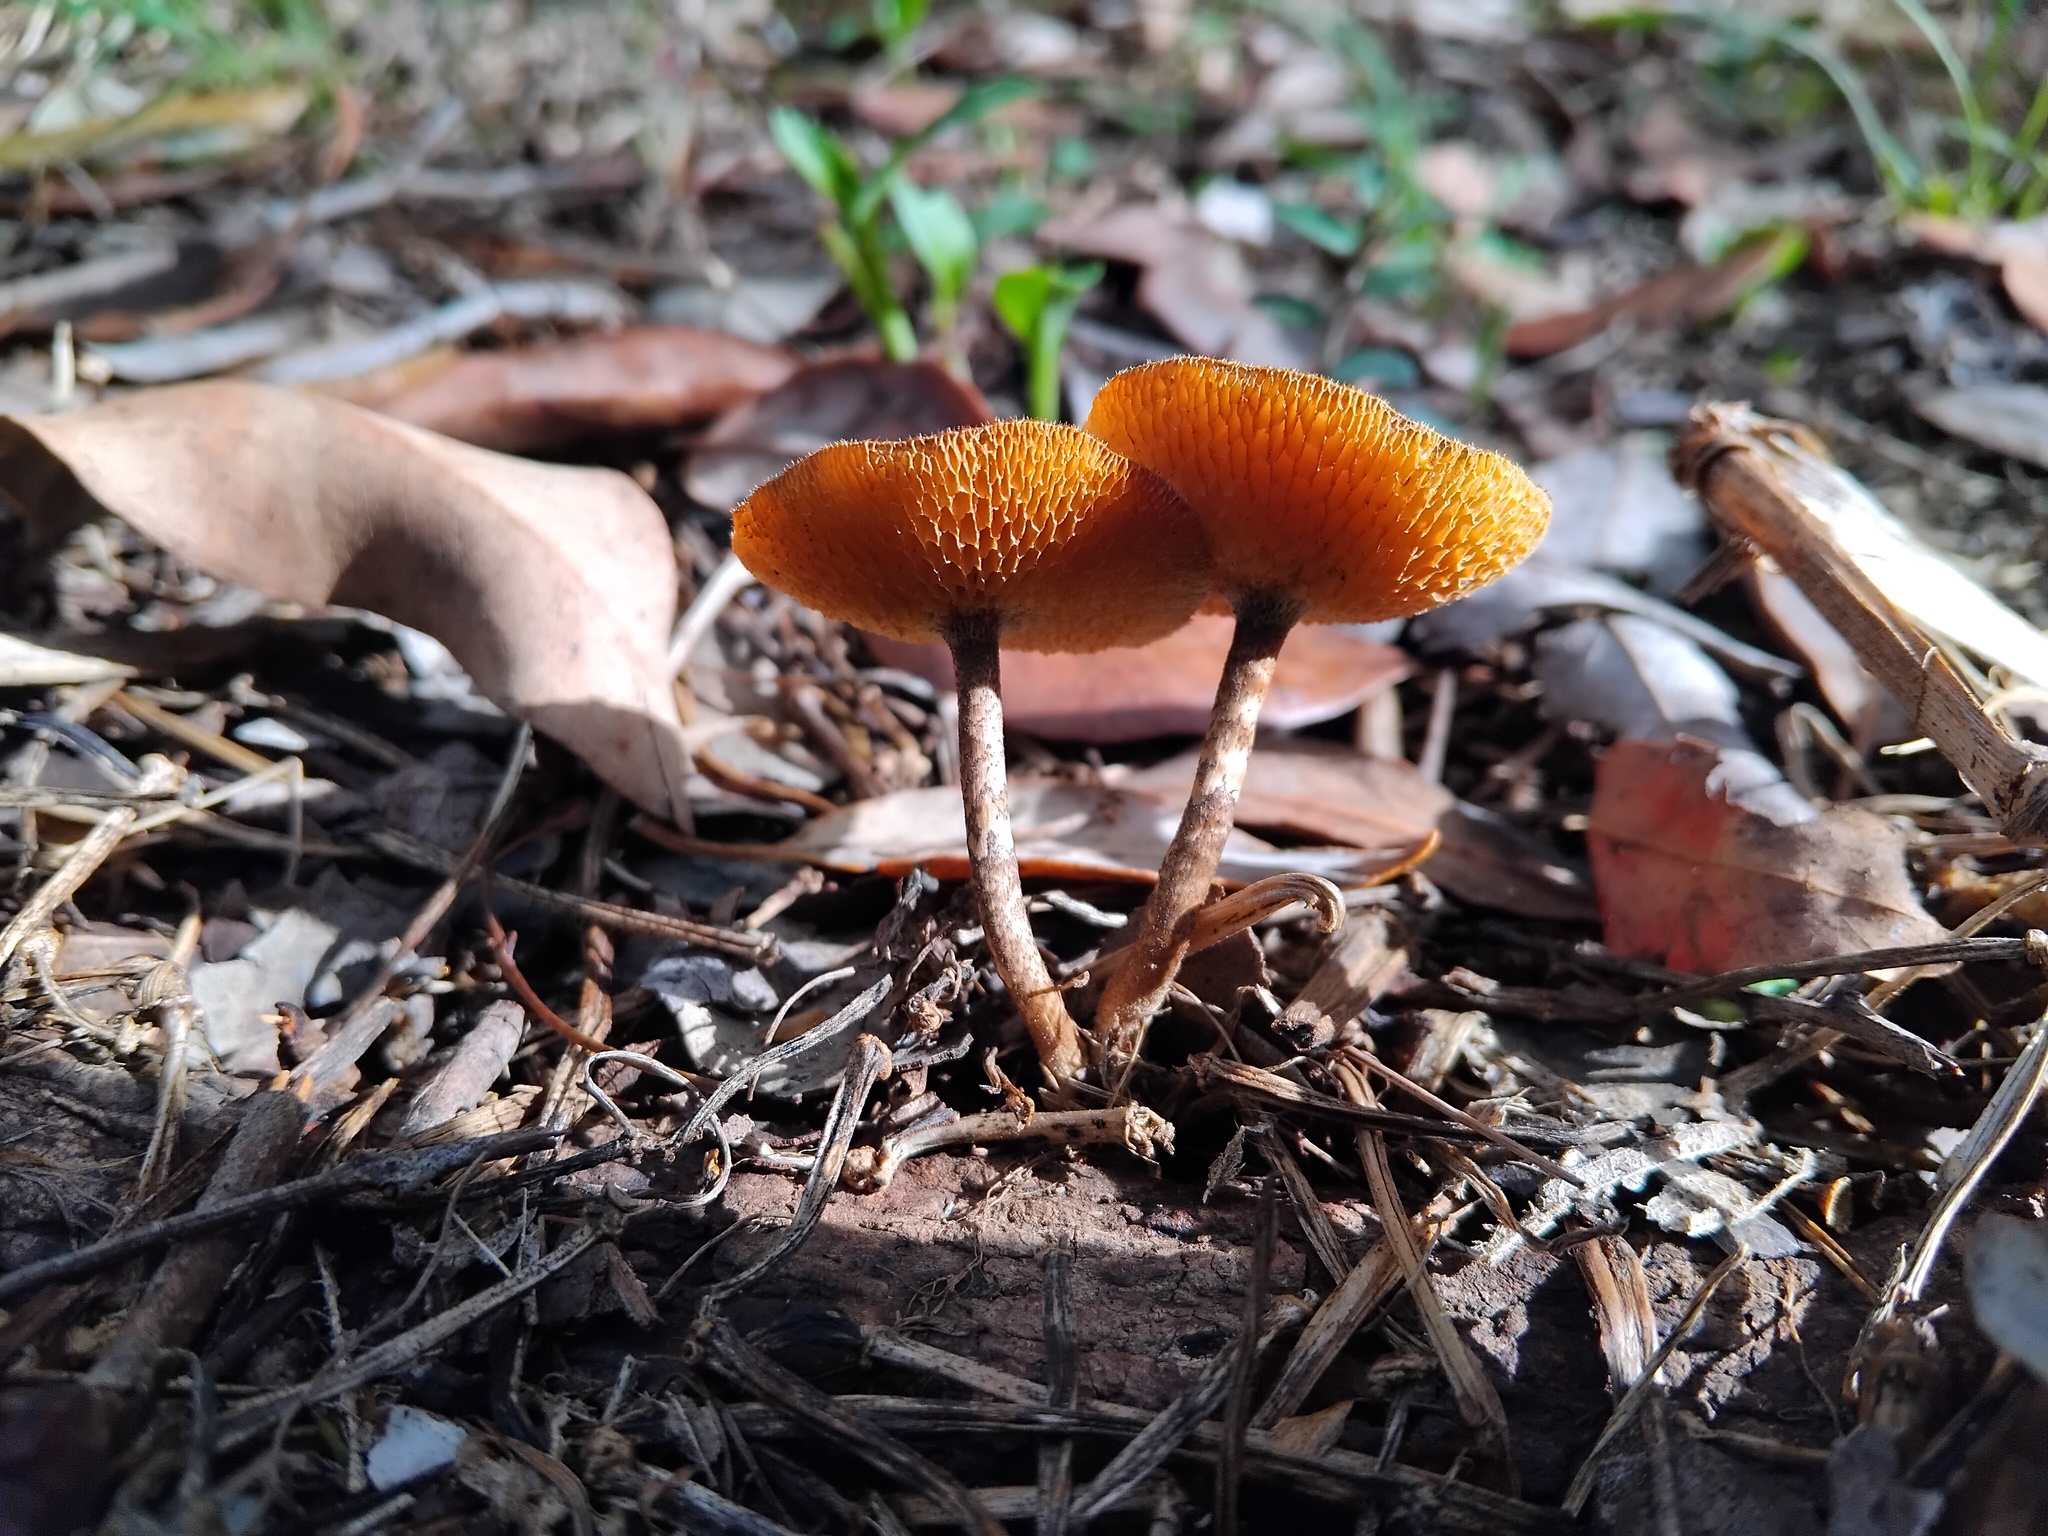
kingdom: Fungi
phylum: Basidiomycota
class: Agaricomycetes
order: Polyporales
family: Polyporaceae
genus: Lentinus
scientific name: Lentinus arcularius
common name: Spring polypore
